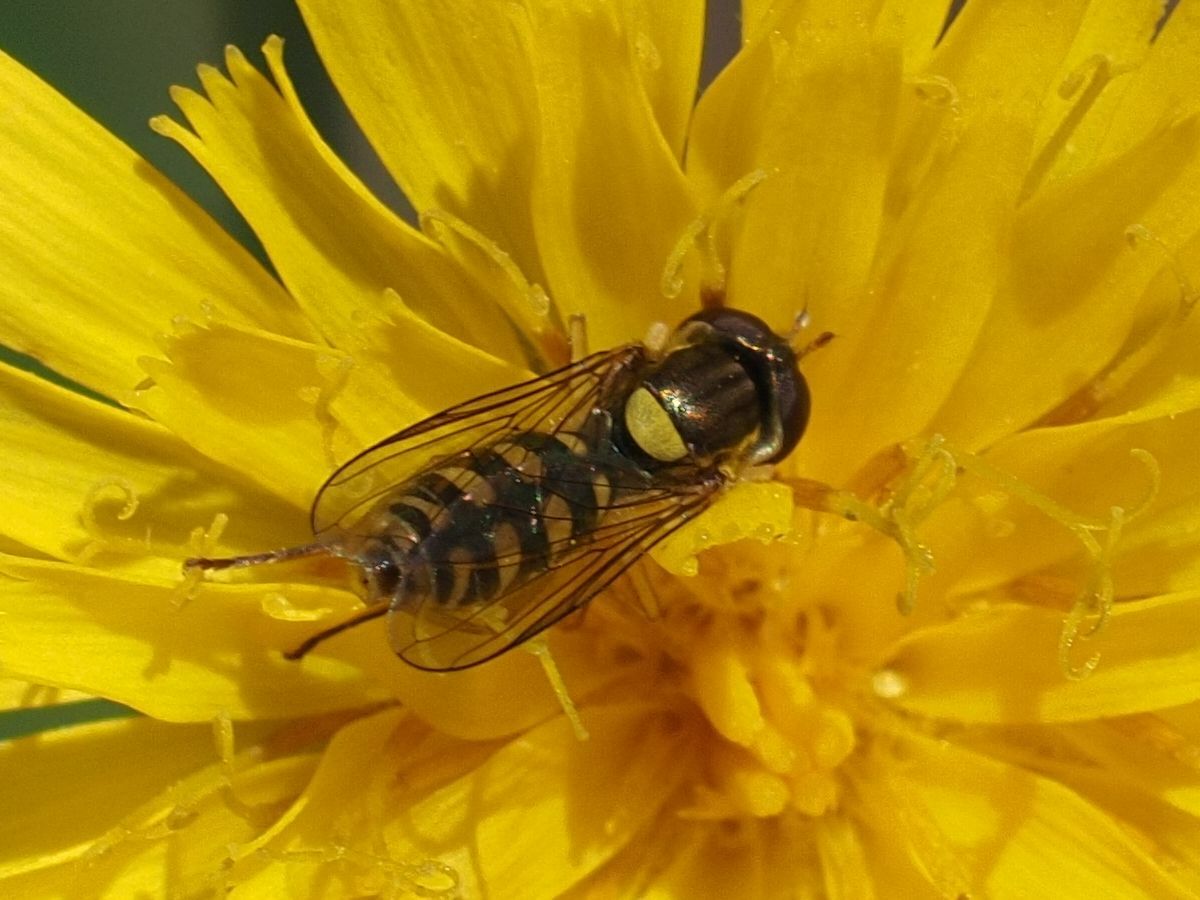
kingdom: Animalia
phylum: Arthropoda
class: Insecta
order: Diptera
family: Syrphidae
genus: Sphaerophoria
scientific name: Sphaerophoria
